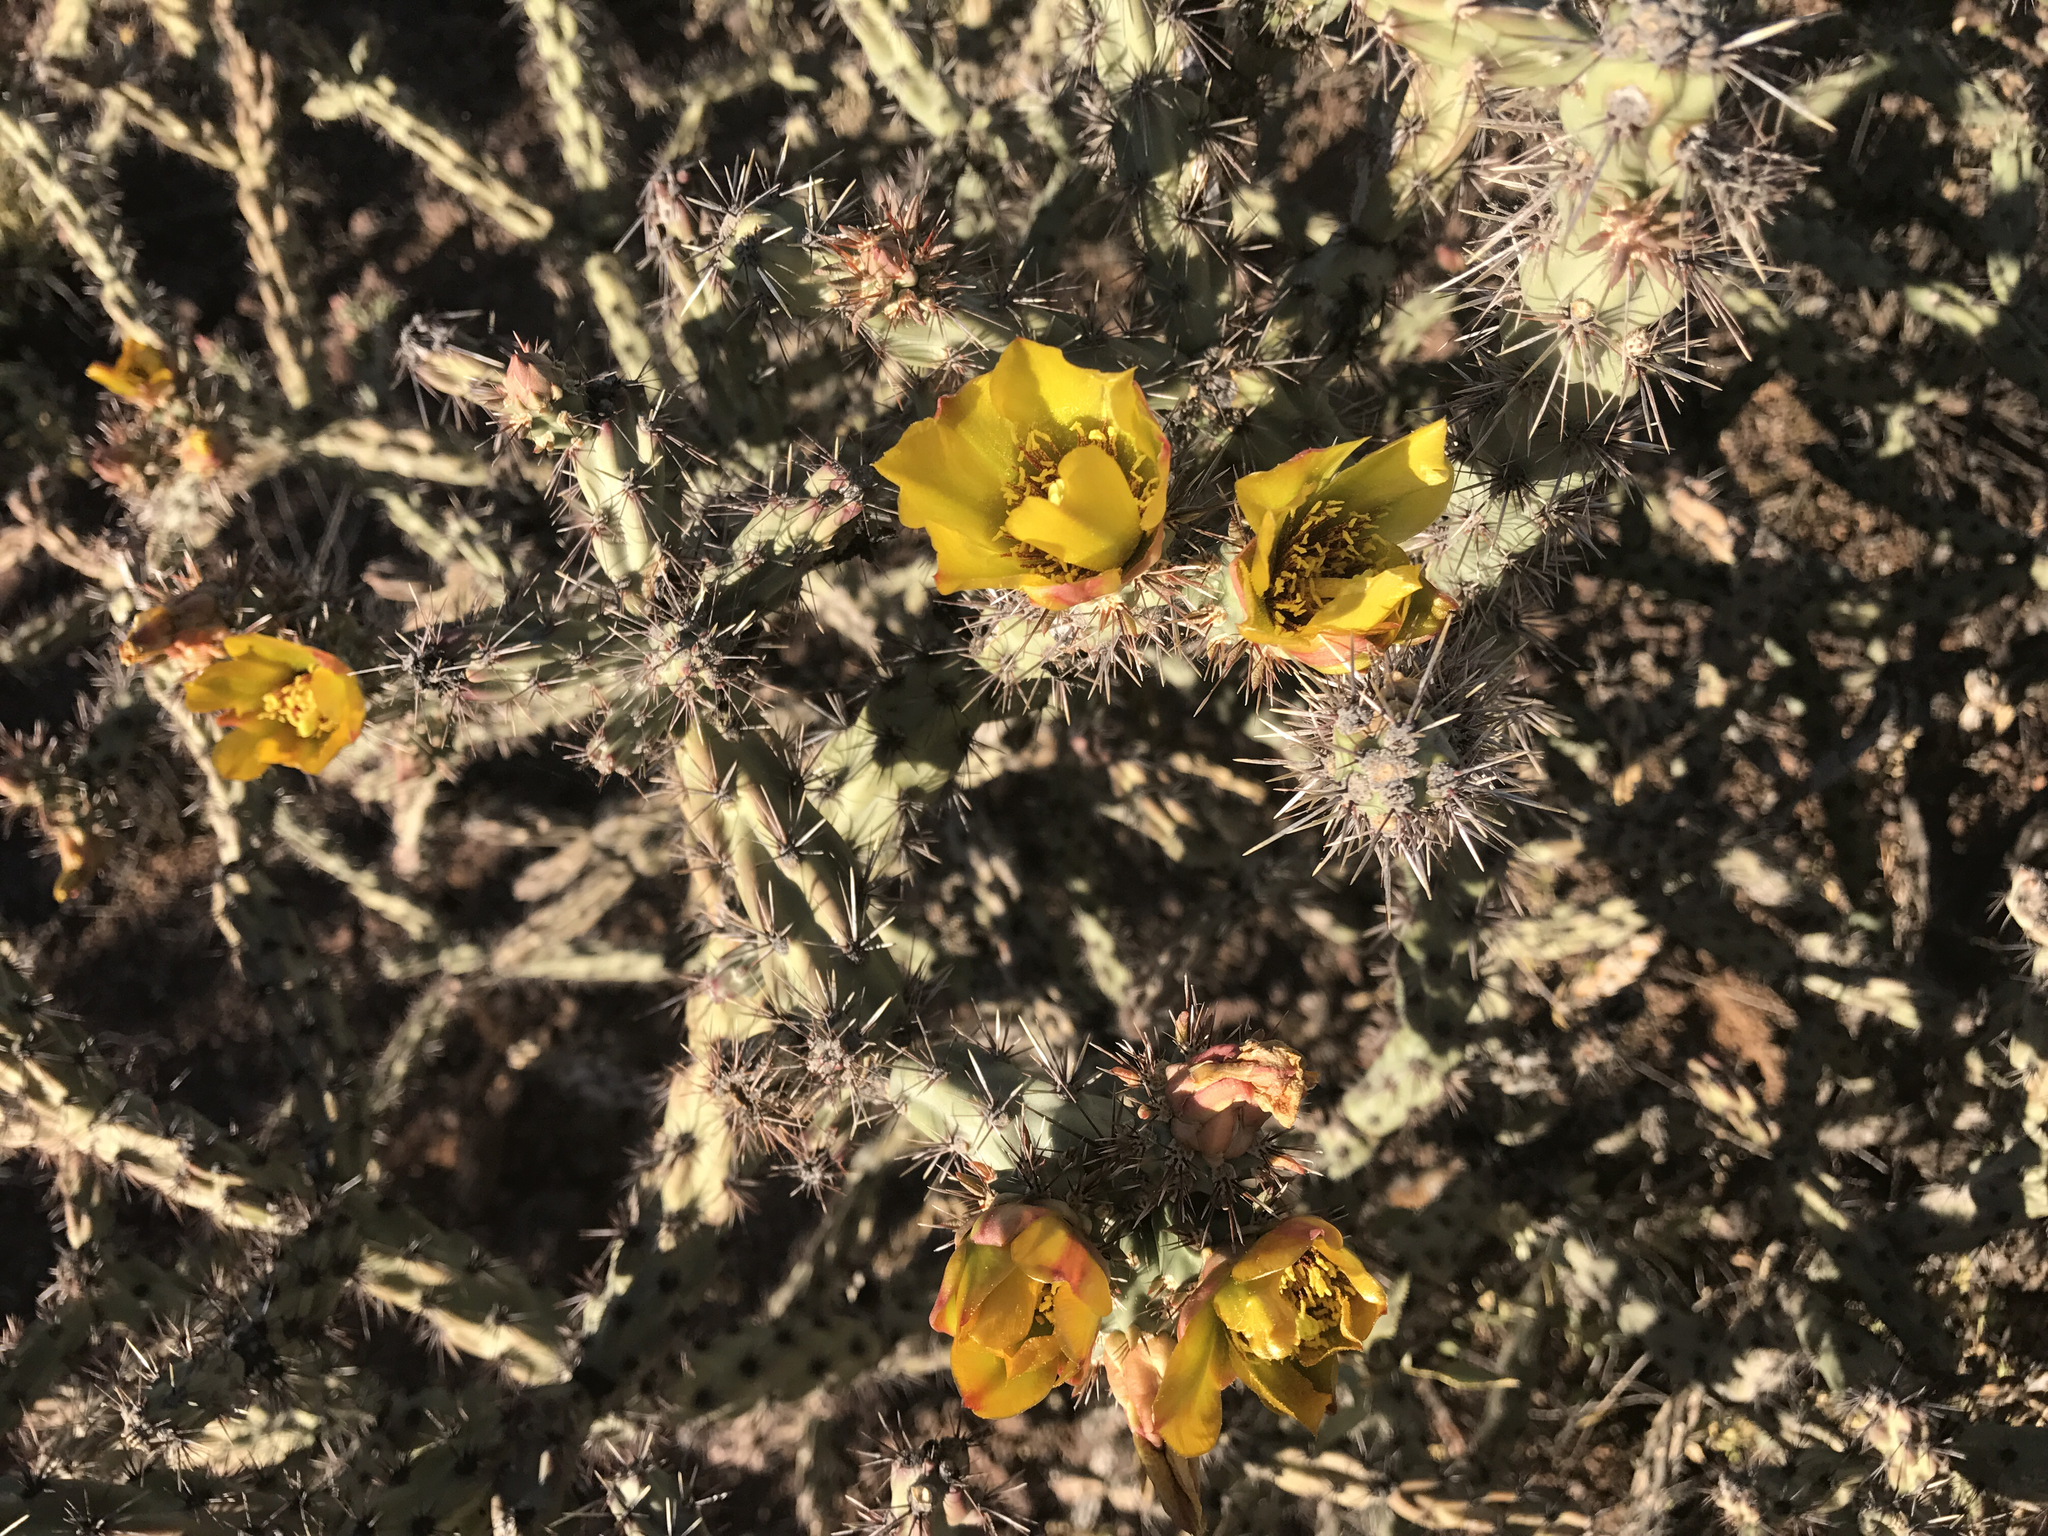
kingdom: Plantae
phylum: Tracheophyta
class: Magnoliopsida
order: Caryophyllales
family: Cactaceae
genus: Cylindropuntia
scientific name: Cylindropuntia acanthocarpa
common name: Buckhorn cholla
